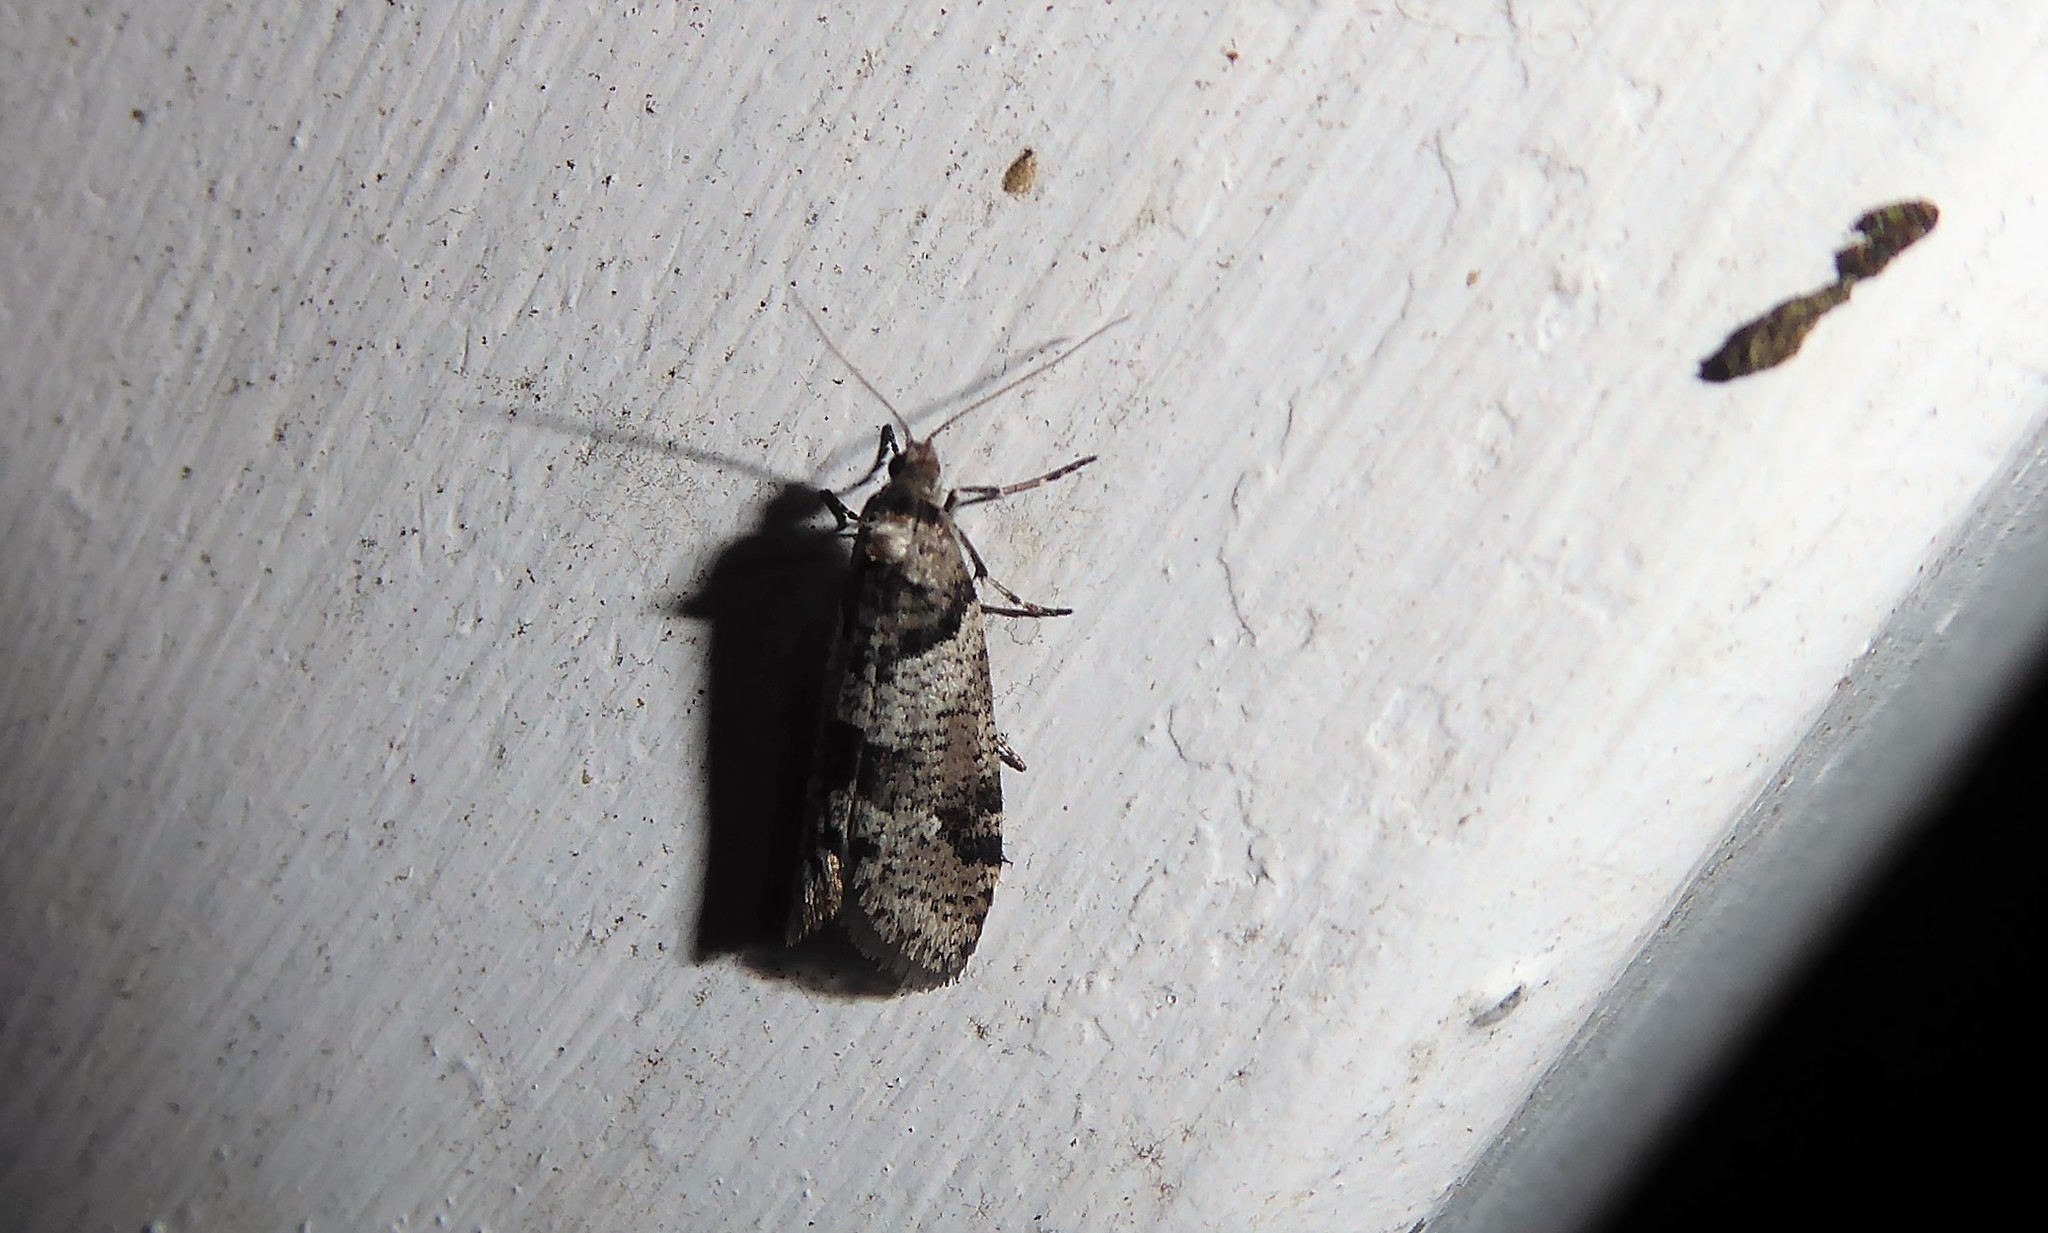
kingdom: Animalia
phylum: Arthropoda
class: Insecta
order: Lepidoptera
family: Psychidae
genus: Lepidoscia
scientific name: Lepidoscia heliochares
